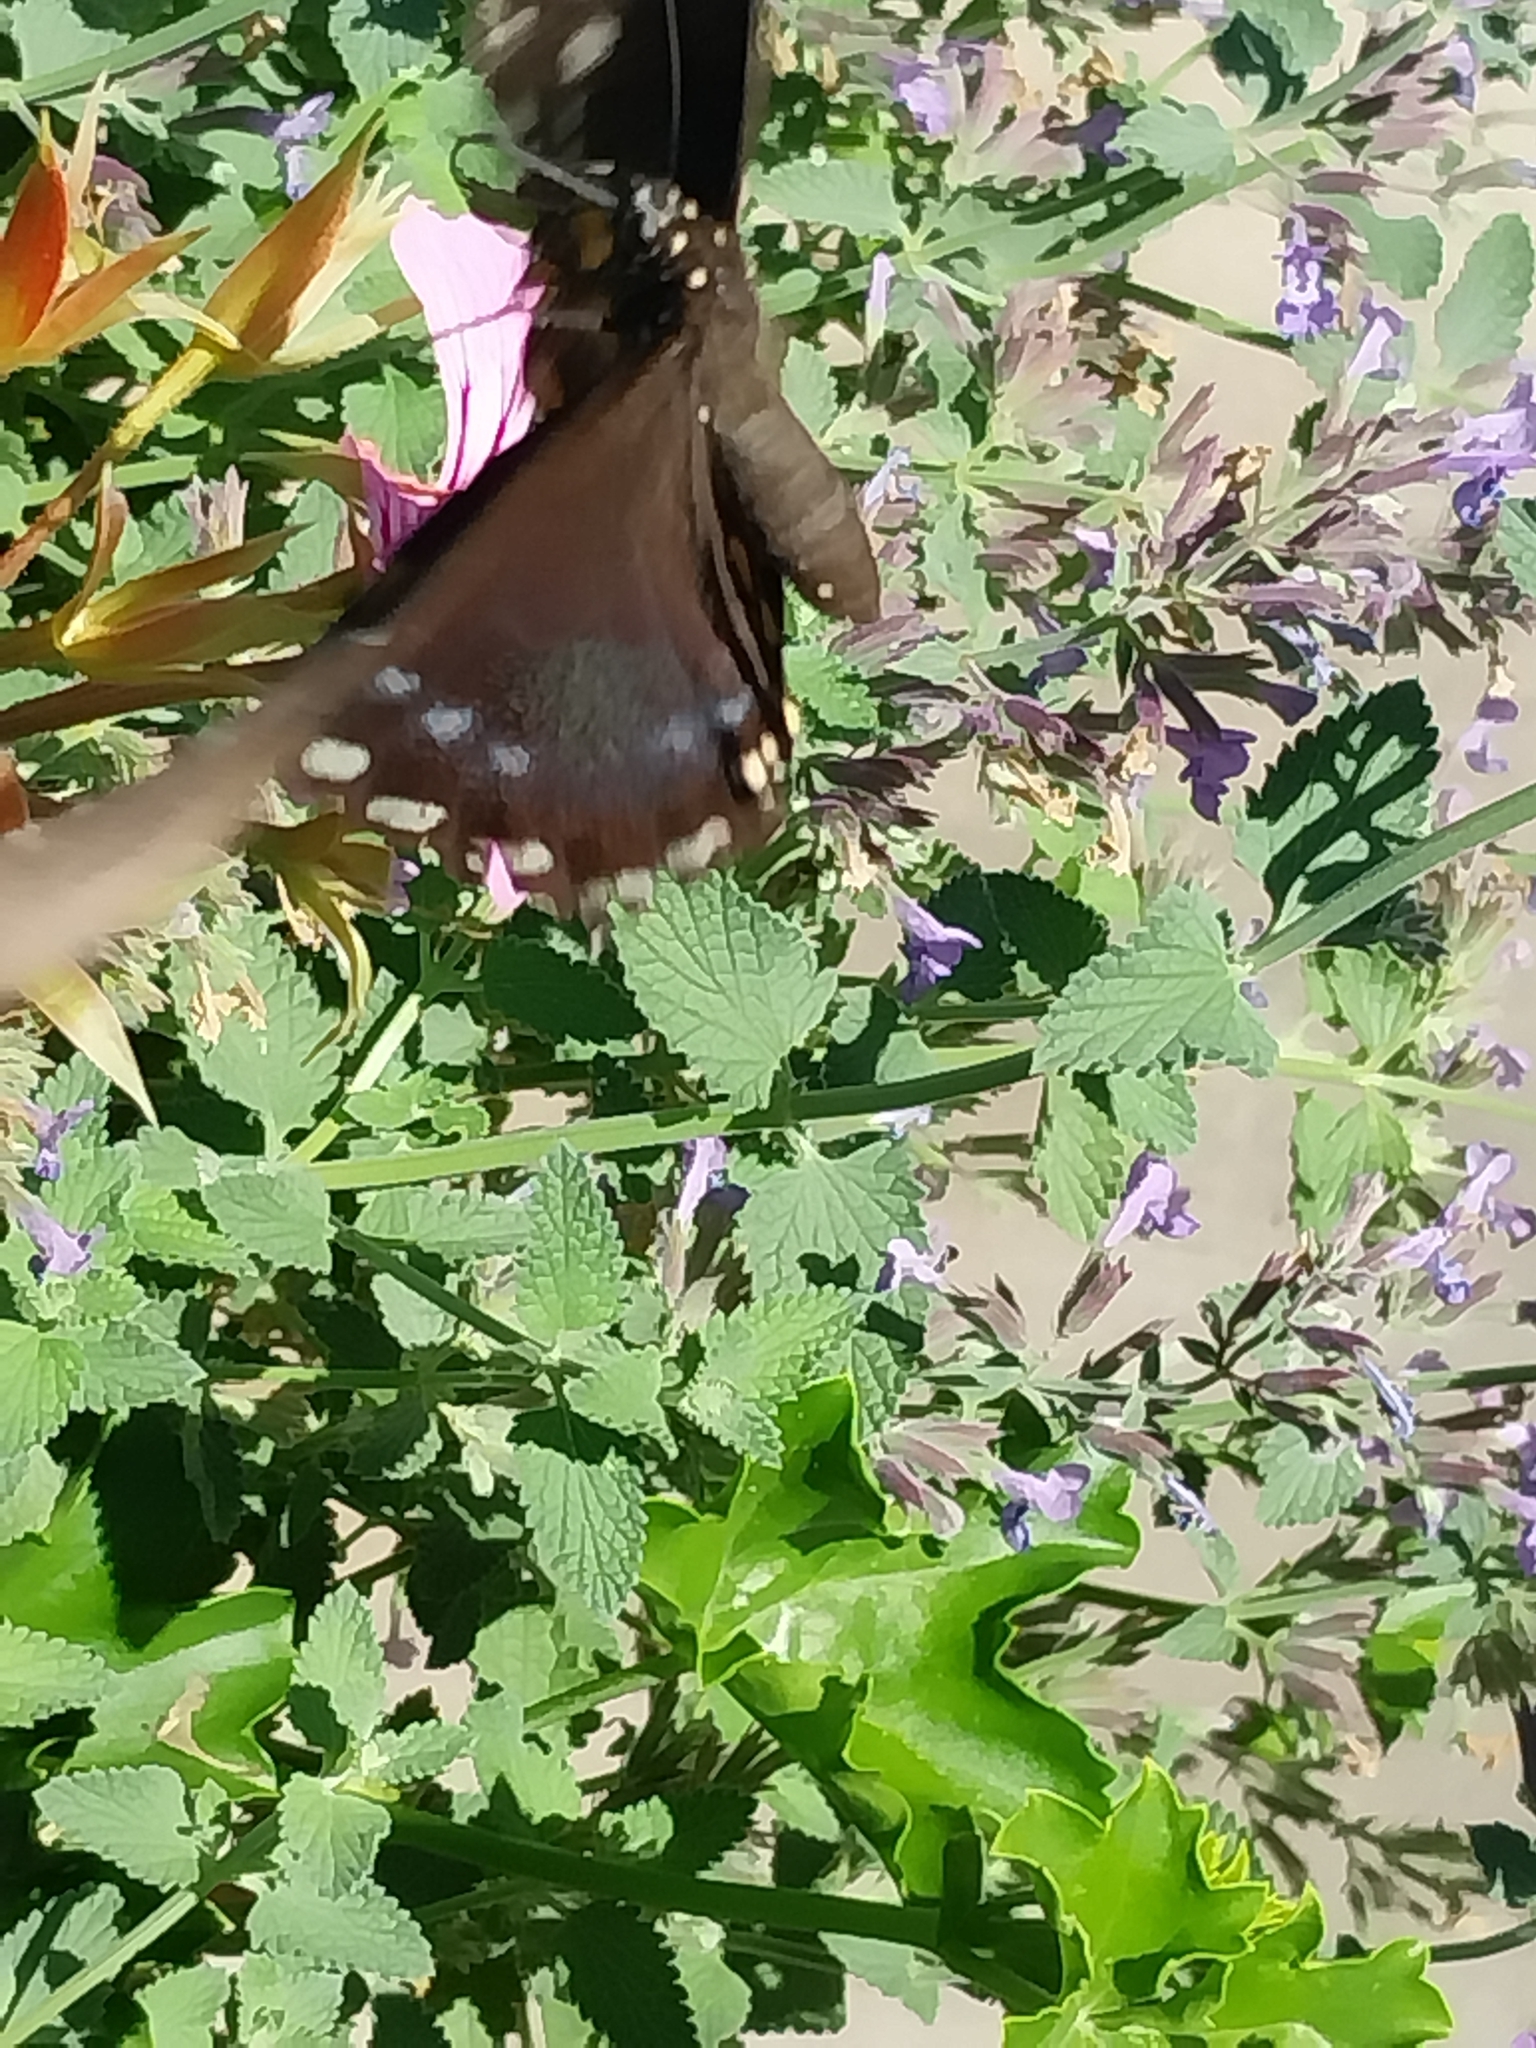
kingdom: Animalia
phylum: Arthropoda
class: Insecta
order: Lepidoptera
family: Papilionidae
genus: Papilio
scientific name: Papilio glaucus
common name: Tiger swallowtail
